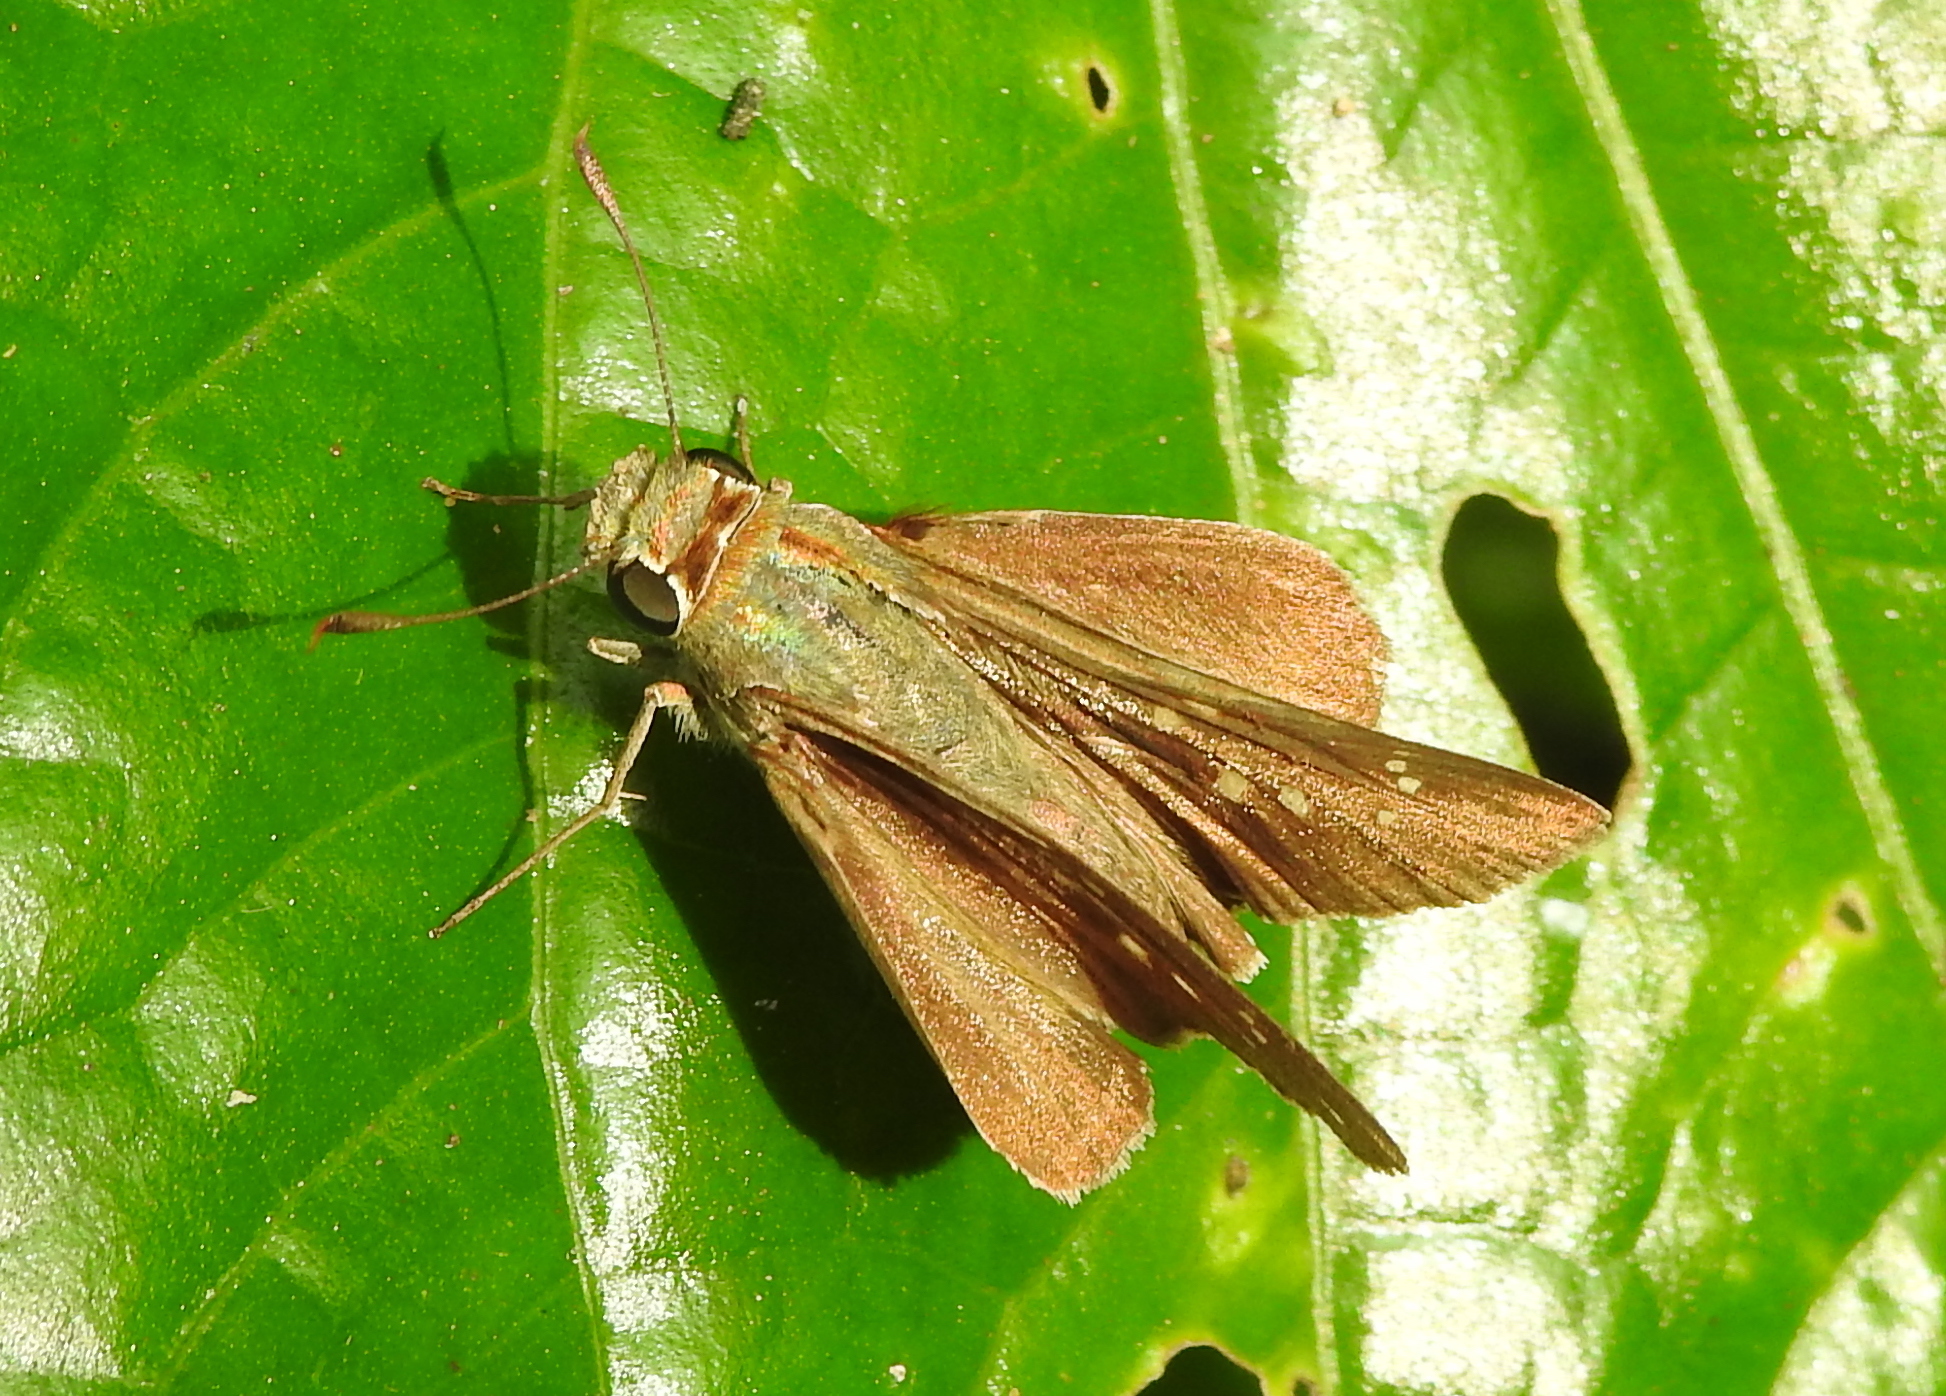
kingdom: Animalia
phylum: Arthropoda
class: Insecta
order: Lepidoptera
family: Hesperiidae
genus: Pelopidas
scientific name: Pelopidas mathias
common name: Black-branded swift
